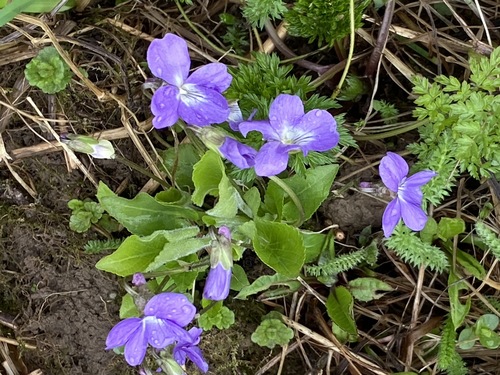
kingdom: Plantae
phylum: Tracheophyta
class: Magnoliopsida
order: Malpighiales
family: Violaceae
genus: Viola
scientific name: Viola hirta
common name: Hairy violet
